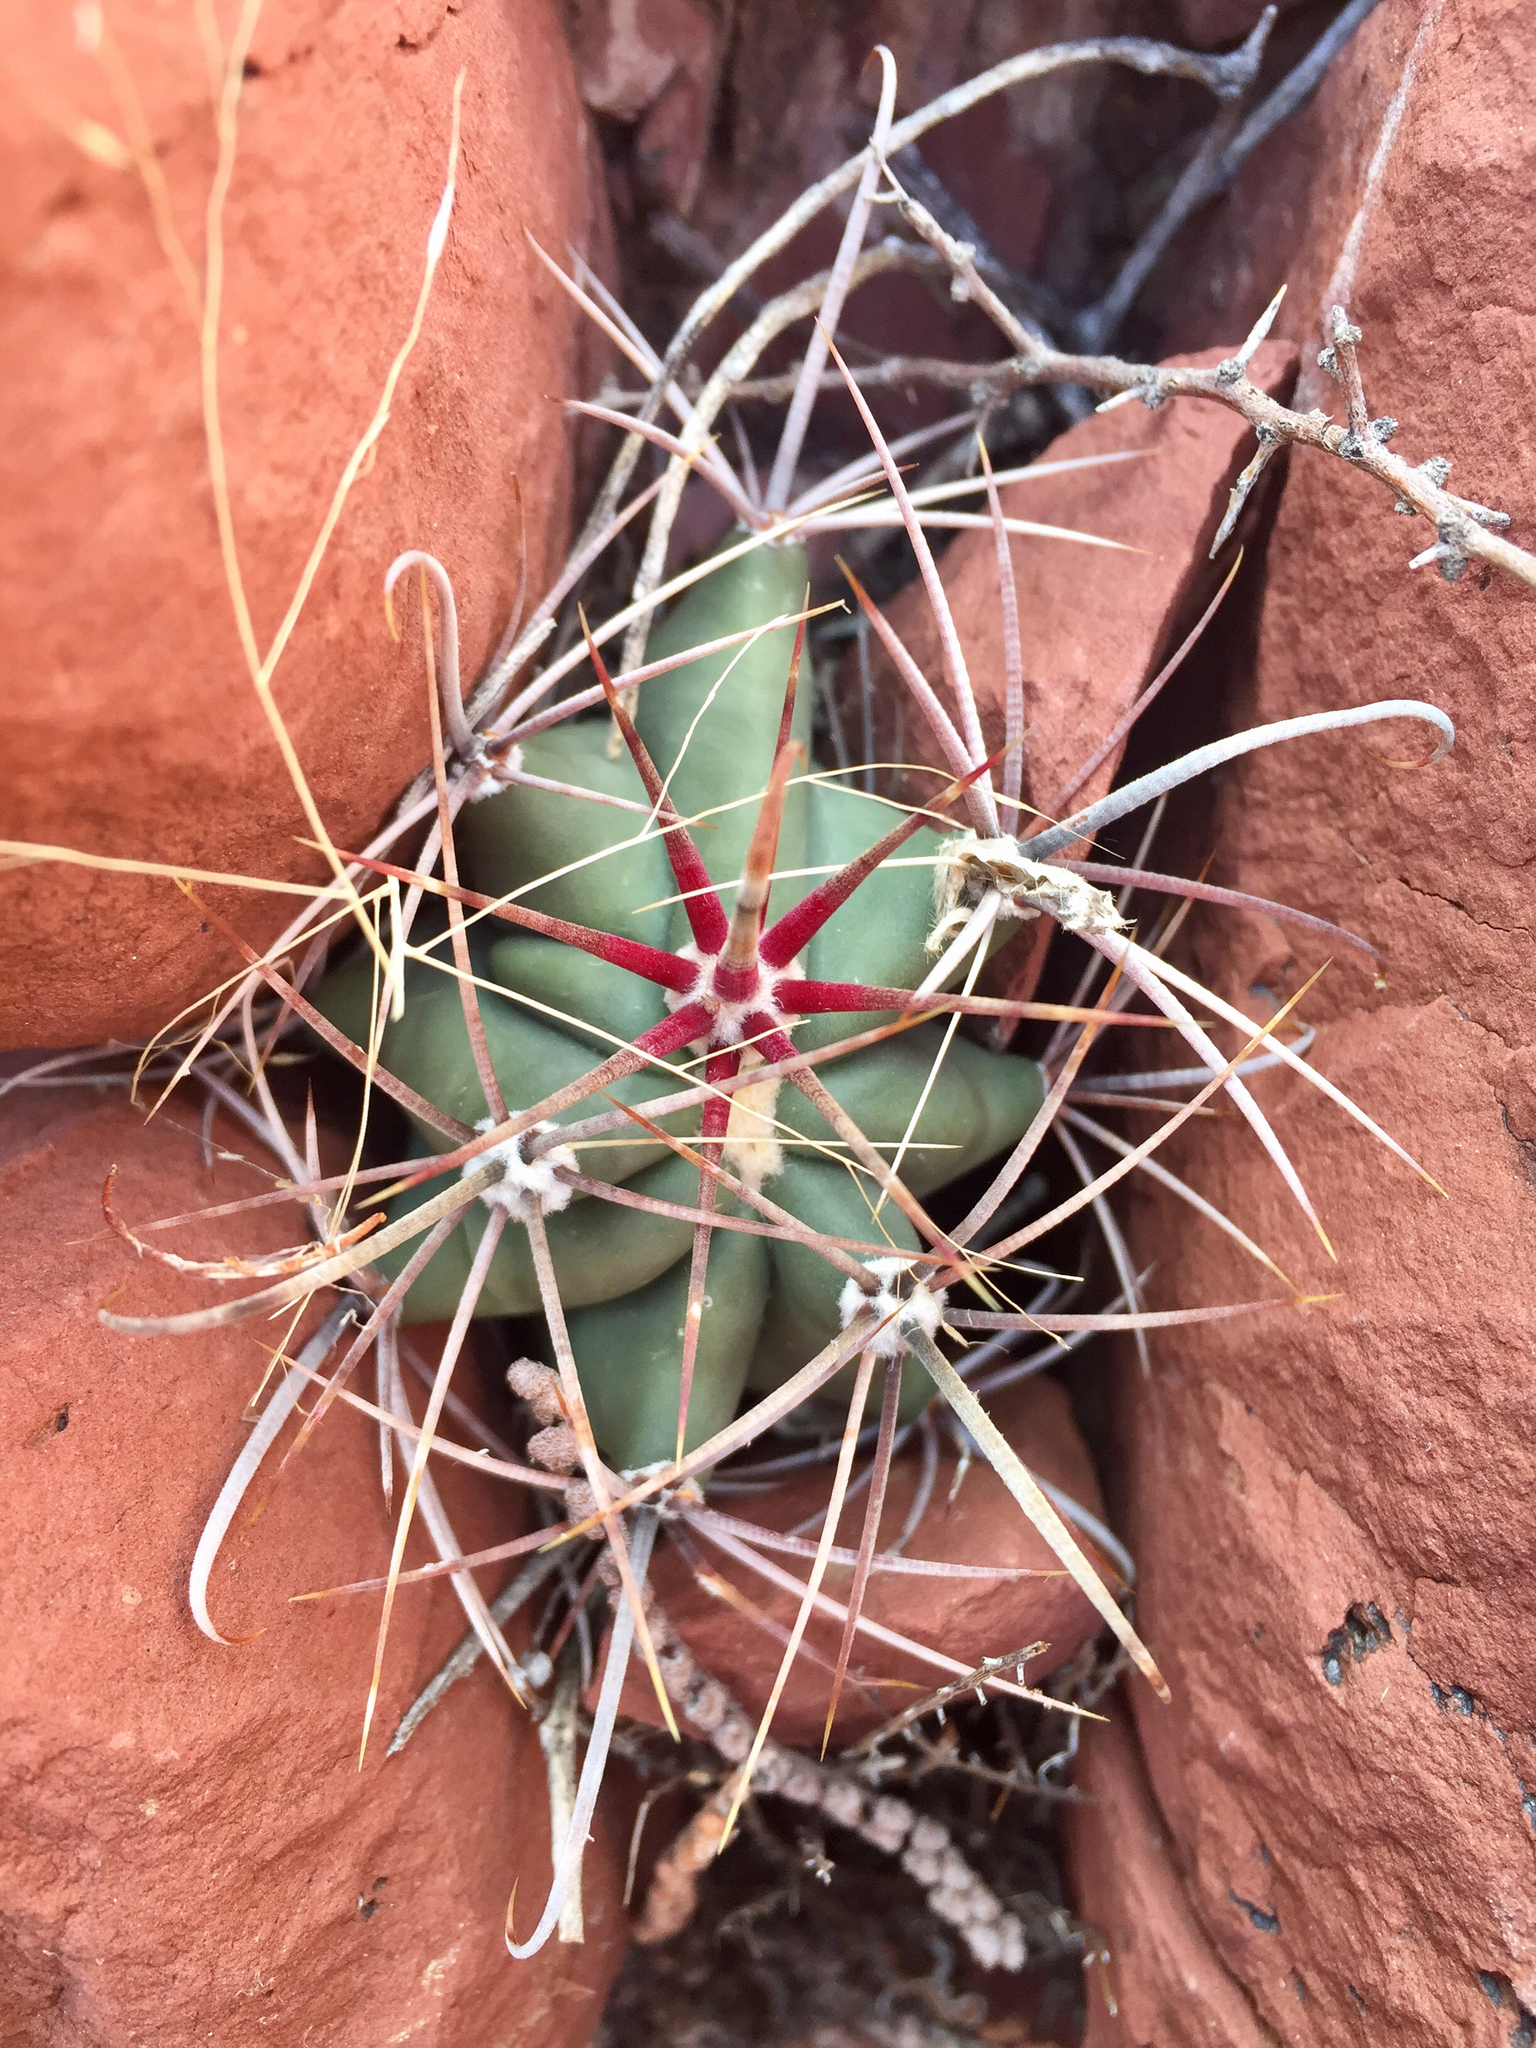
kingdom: Plantae
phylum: Tracheophyta
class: Magnoliopsida
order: Caryophyllales
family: Cactaceae
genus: Ferocactus
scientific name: Ferocactus wislizeni
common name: Candy barrel cactus
